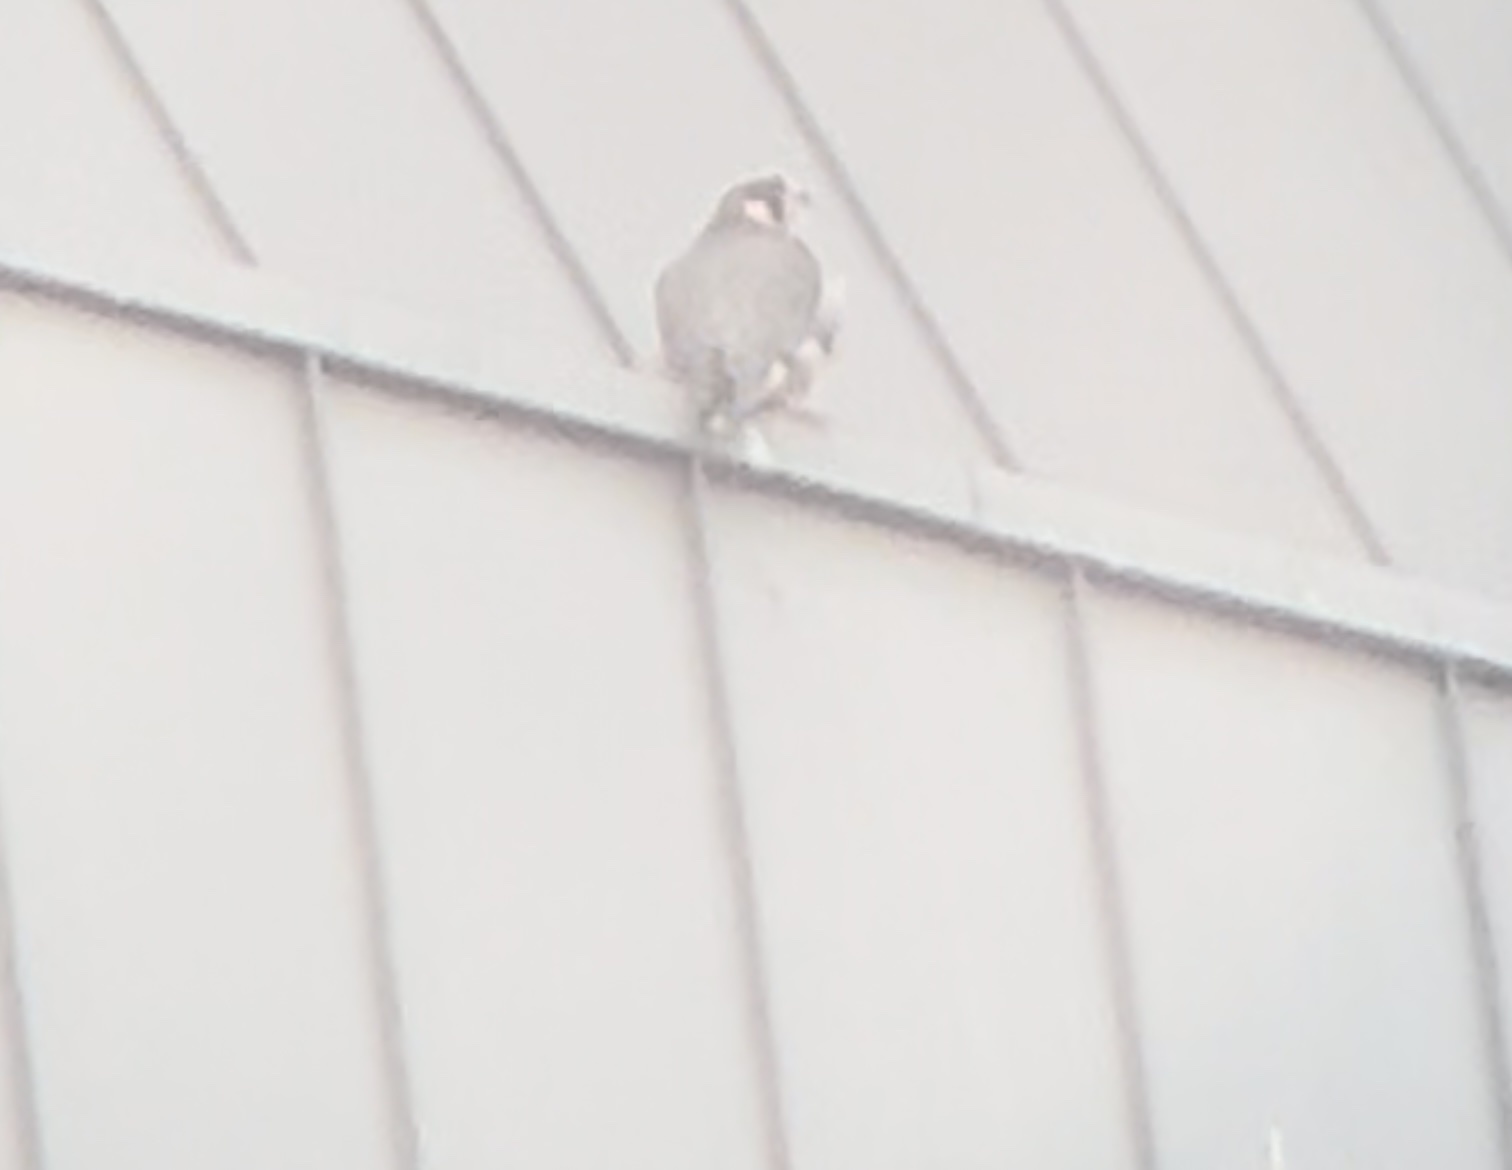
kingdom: Animalia
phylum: Chordata
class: Aves
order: Falconiformes
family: Falconidae
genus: Falco
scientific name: Falco peregrinus
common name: Peregrine falcon
